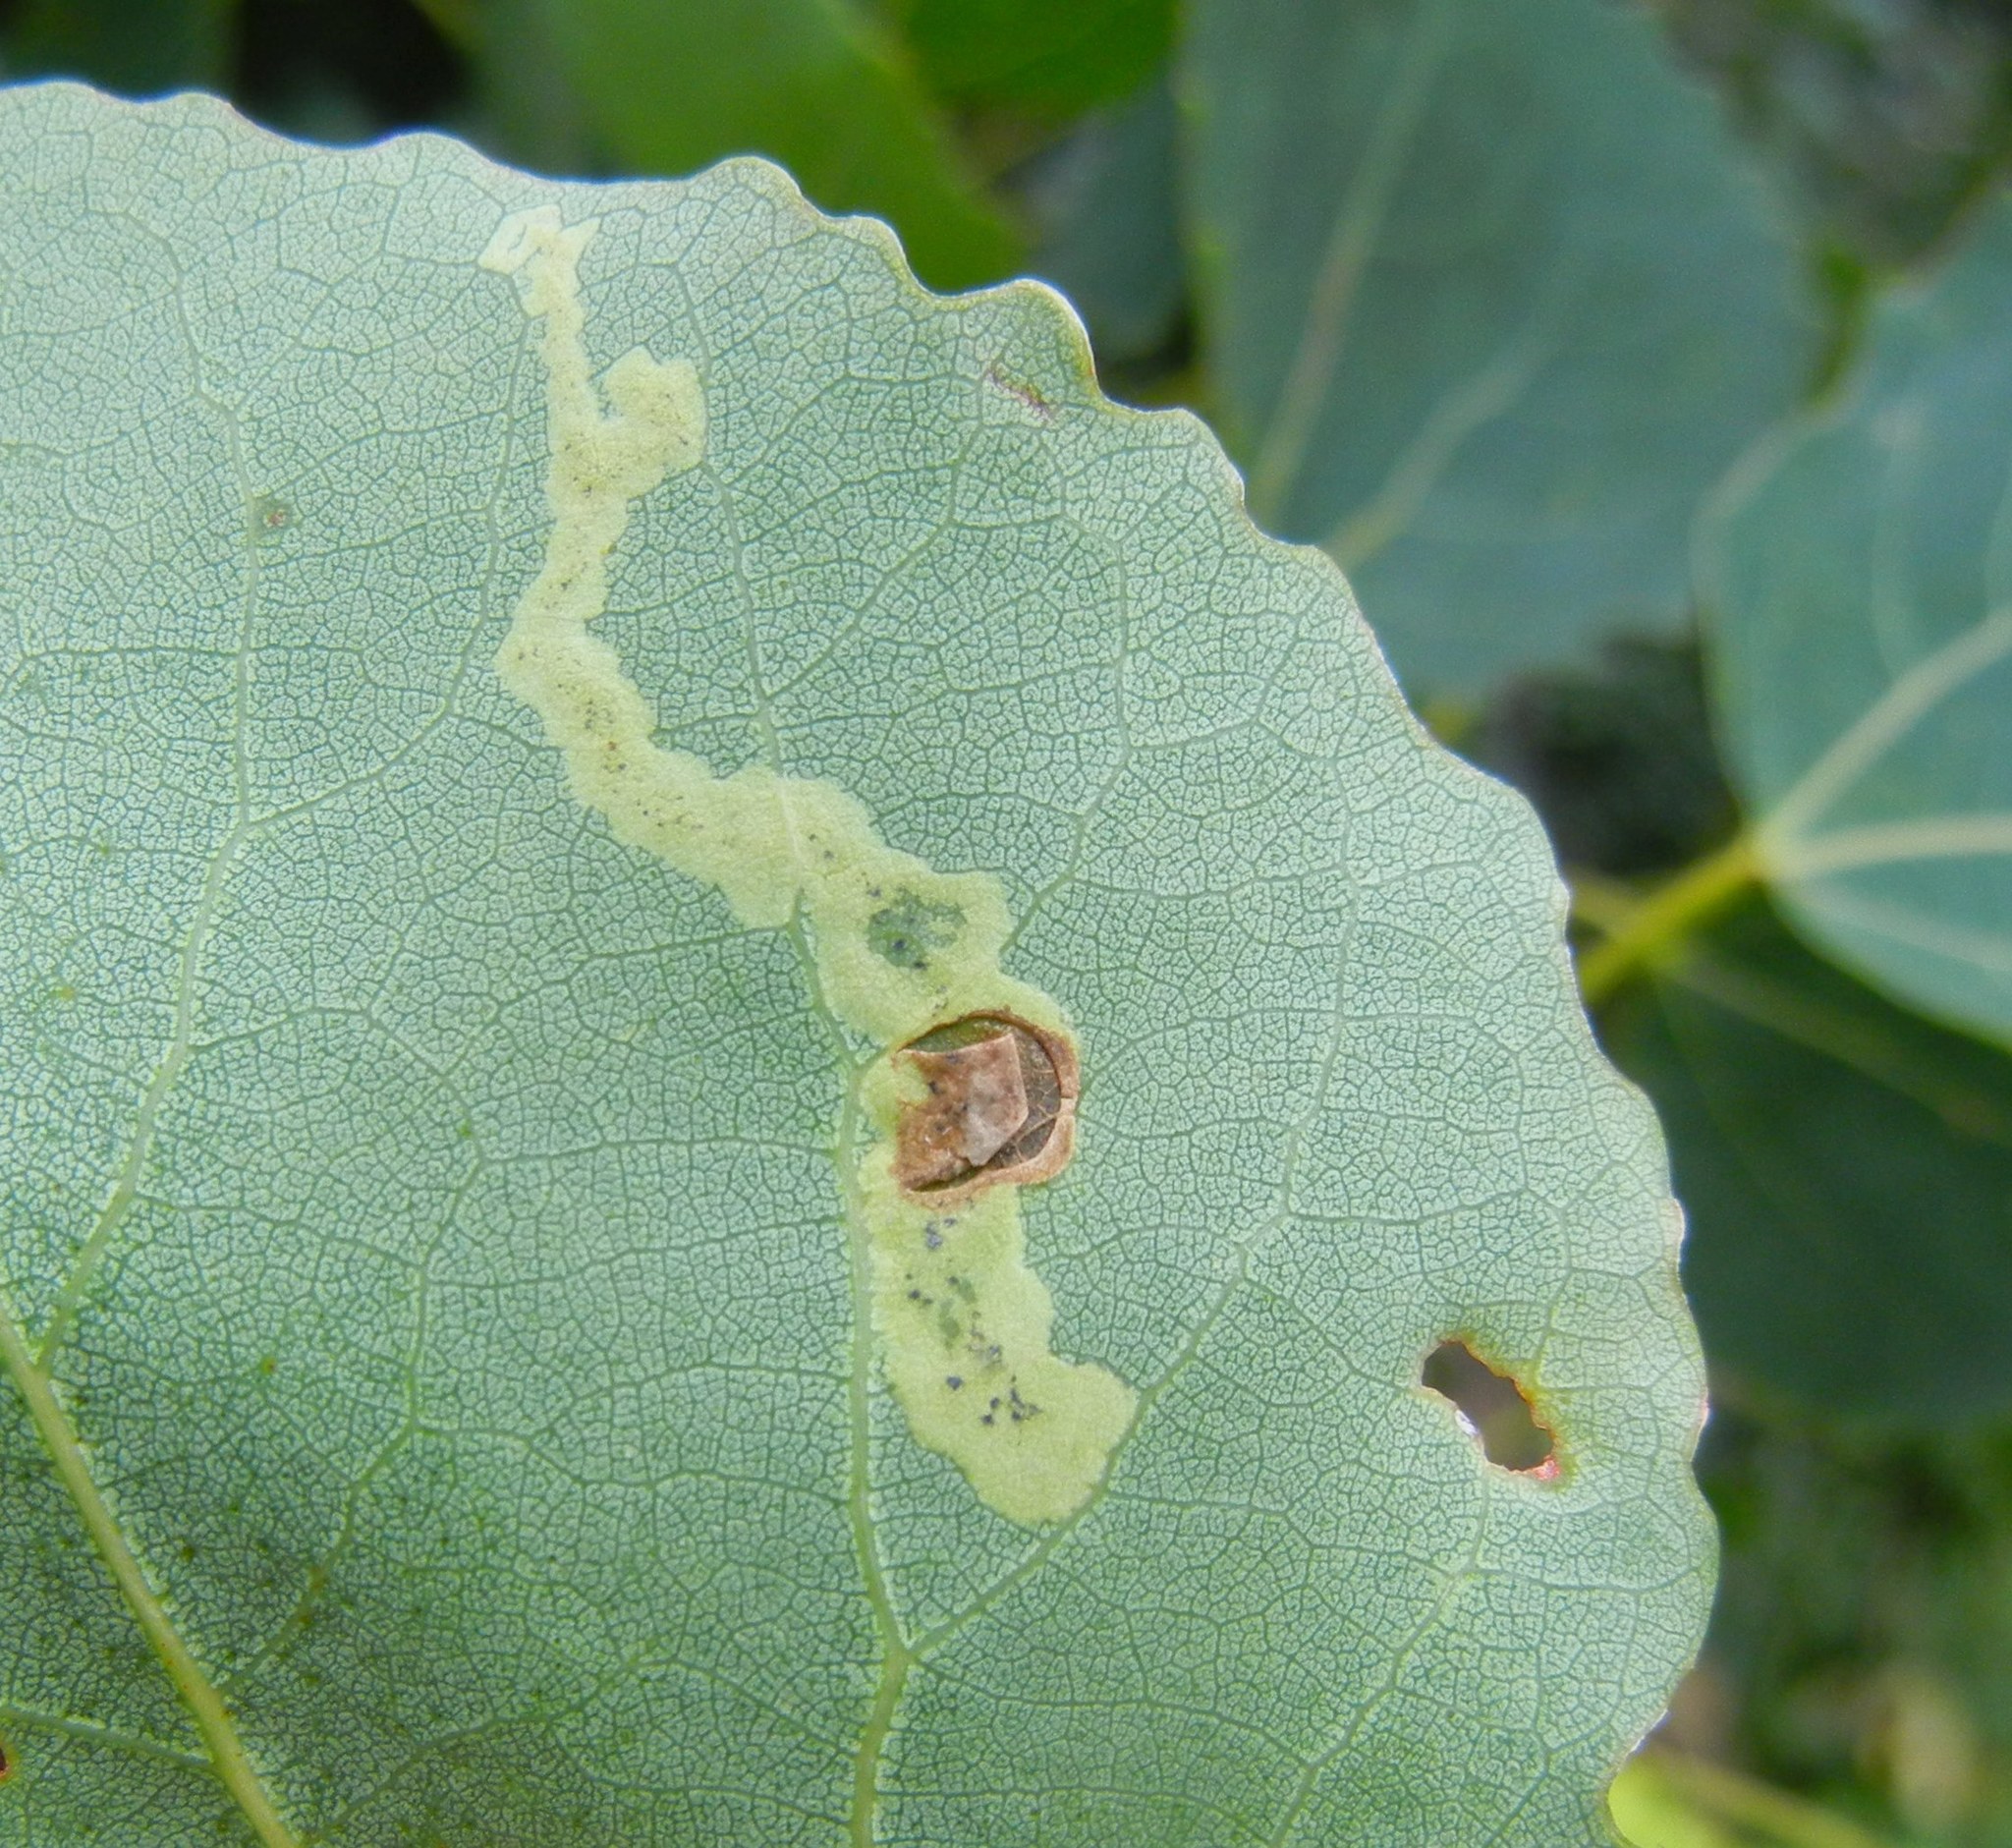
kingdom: Animalia
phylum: Arthropoda
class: Insecta
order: Diptera
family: Agromyzidae
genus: Aulagromyza
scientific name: Aulagromyza tremulae
